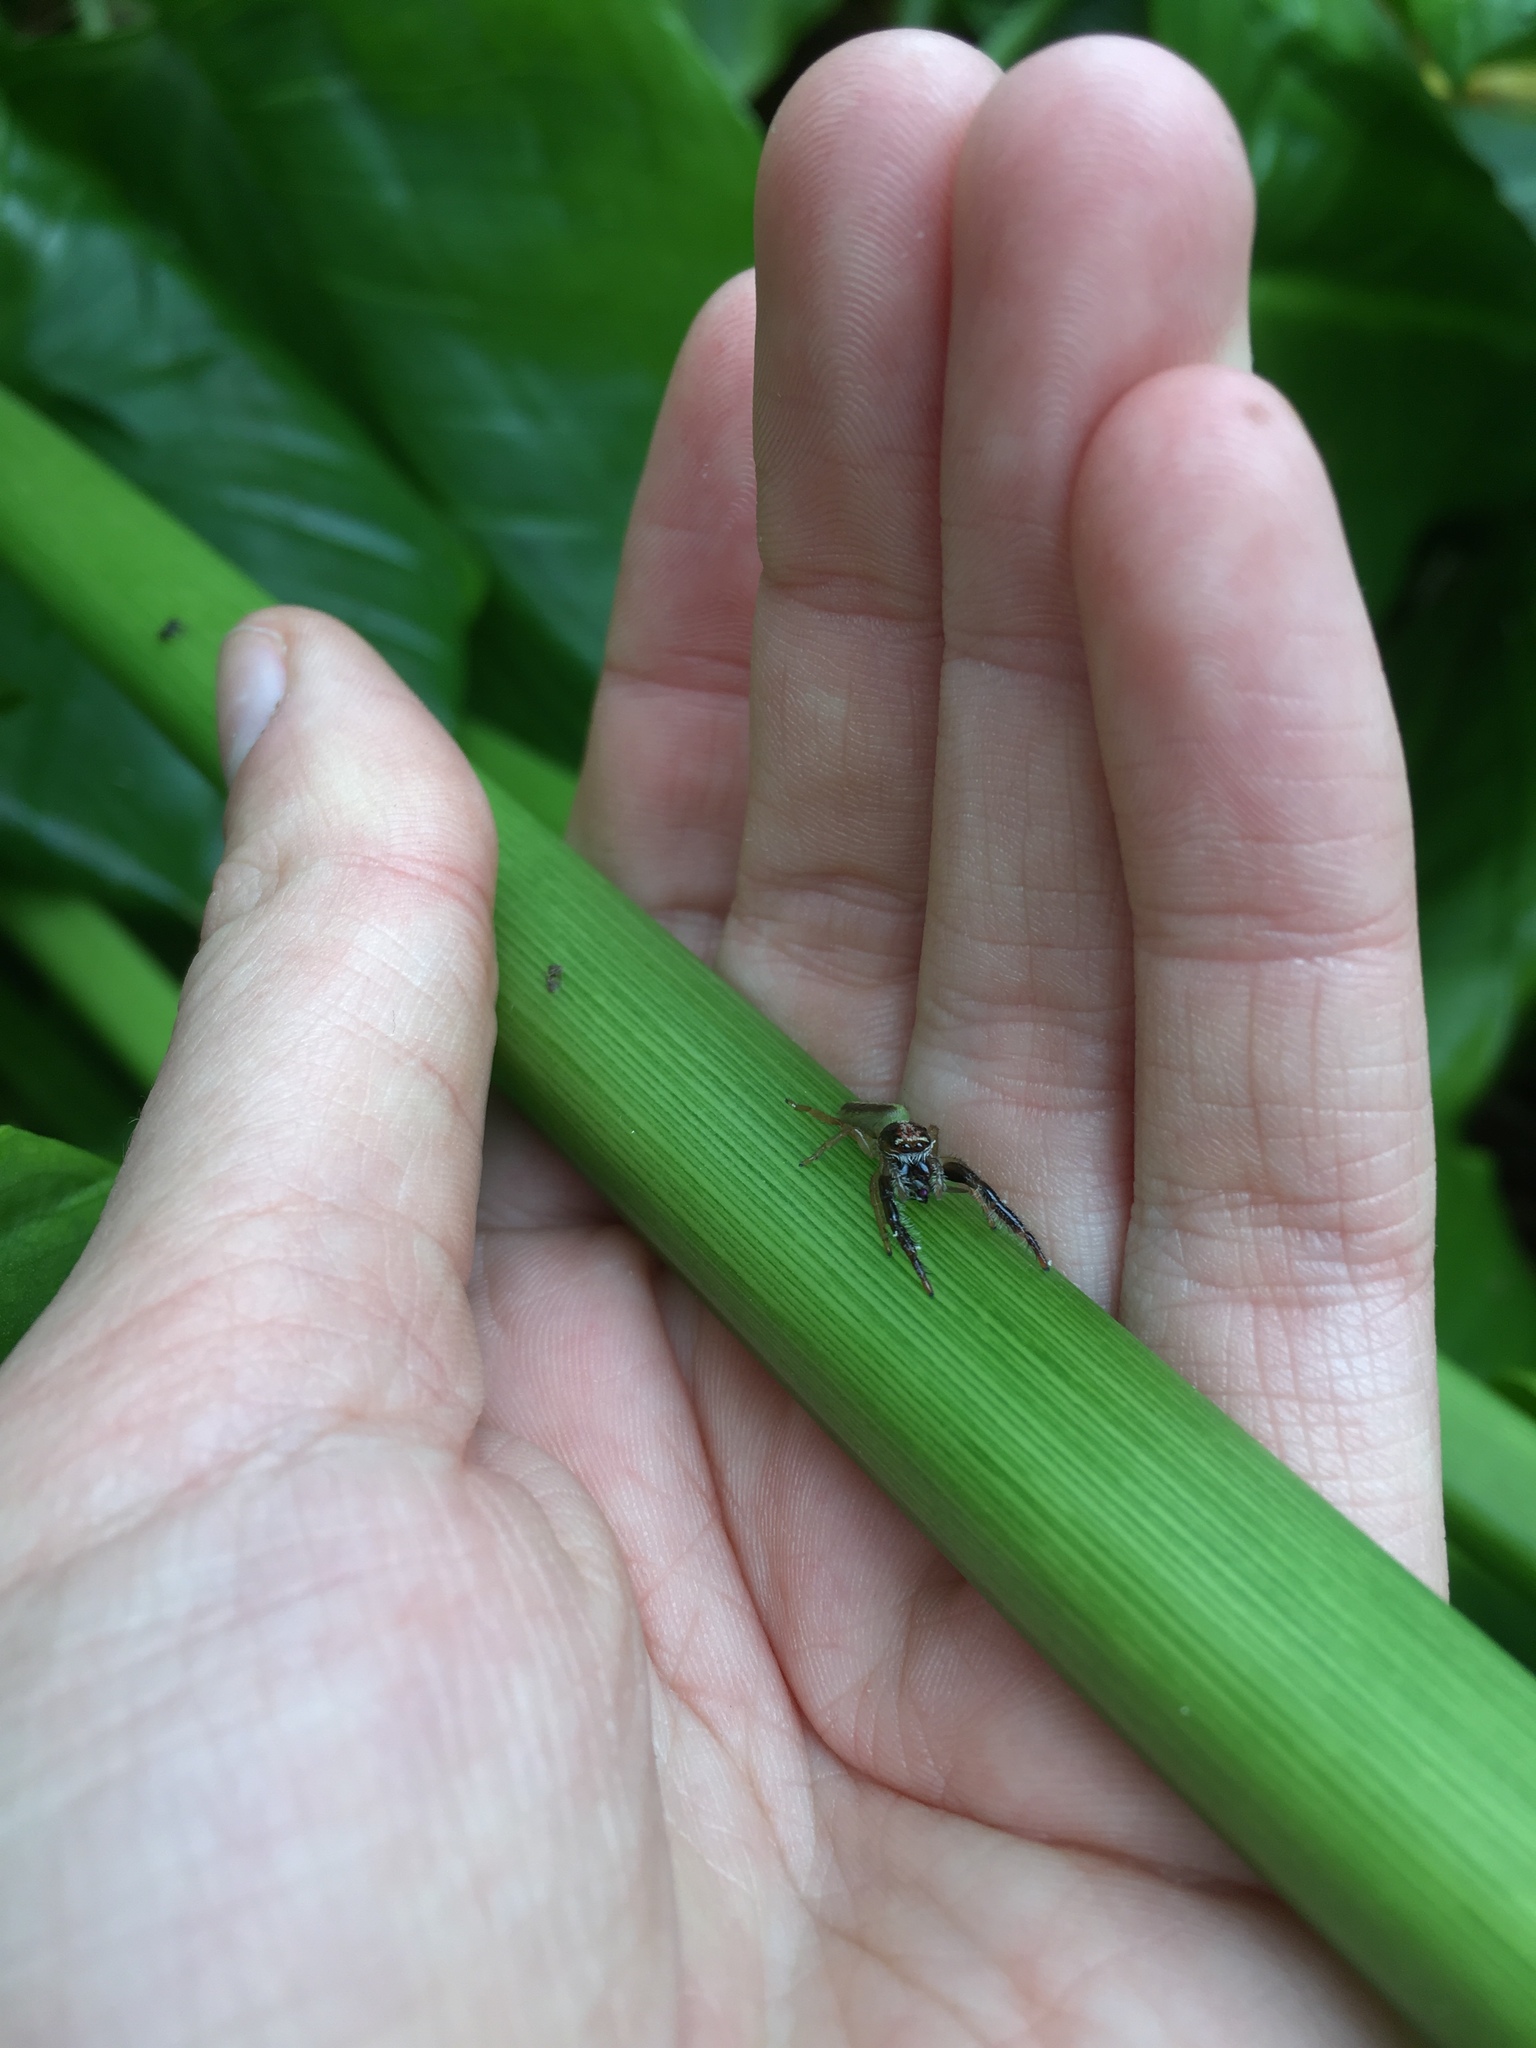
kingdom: Animalia
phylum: Arthropoda
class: Arachnida
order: Araneae
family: Salticidae
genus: Trite
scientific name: Trite planiceps
